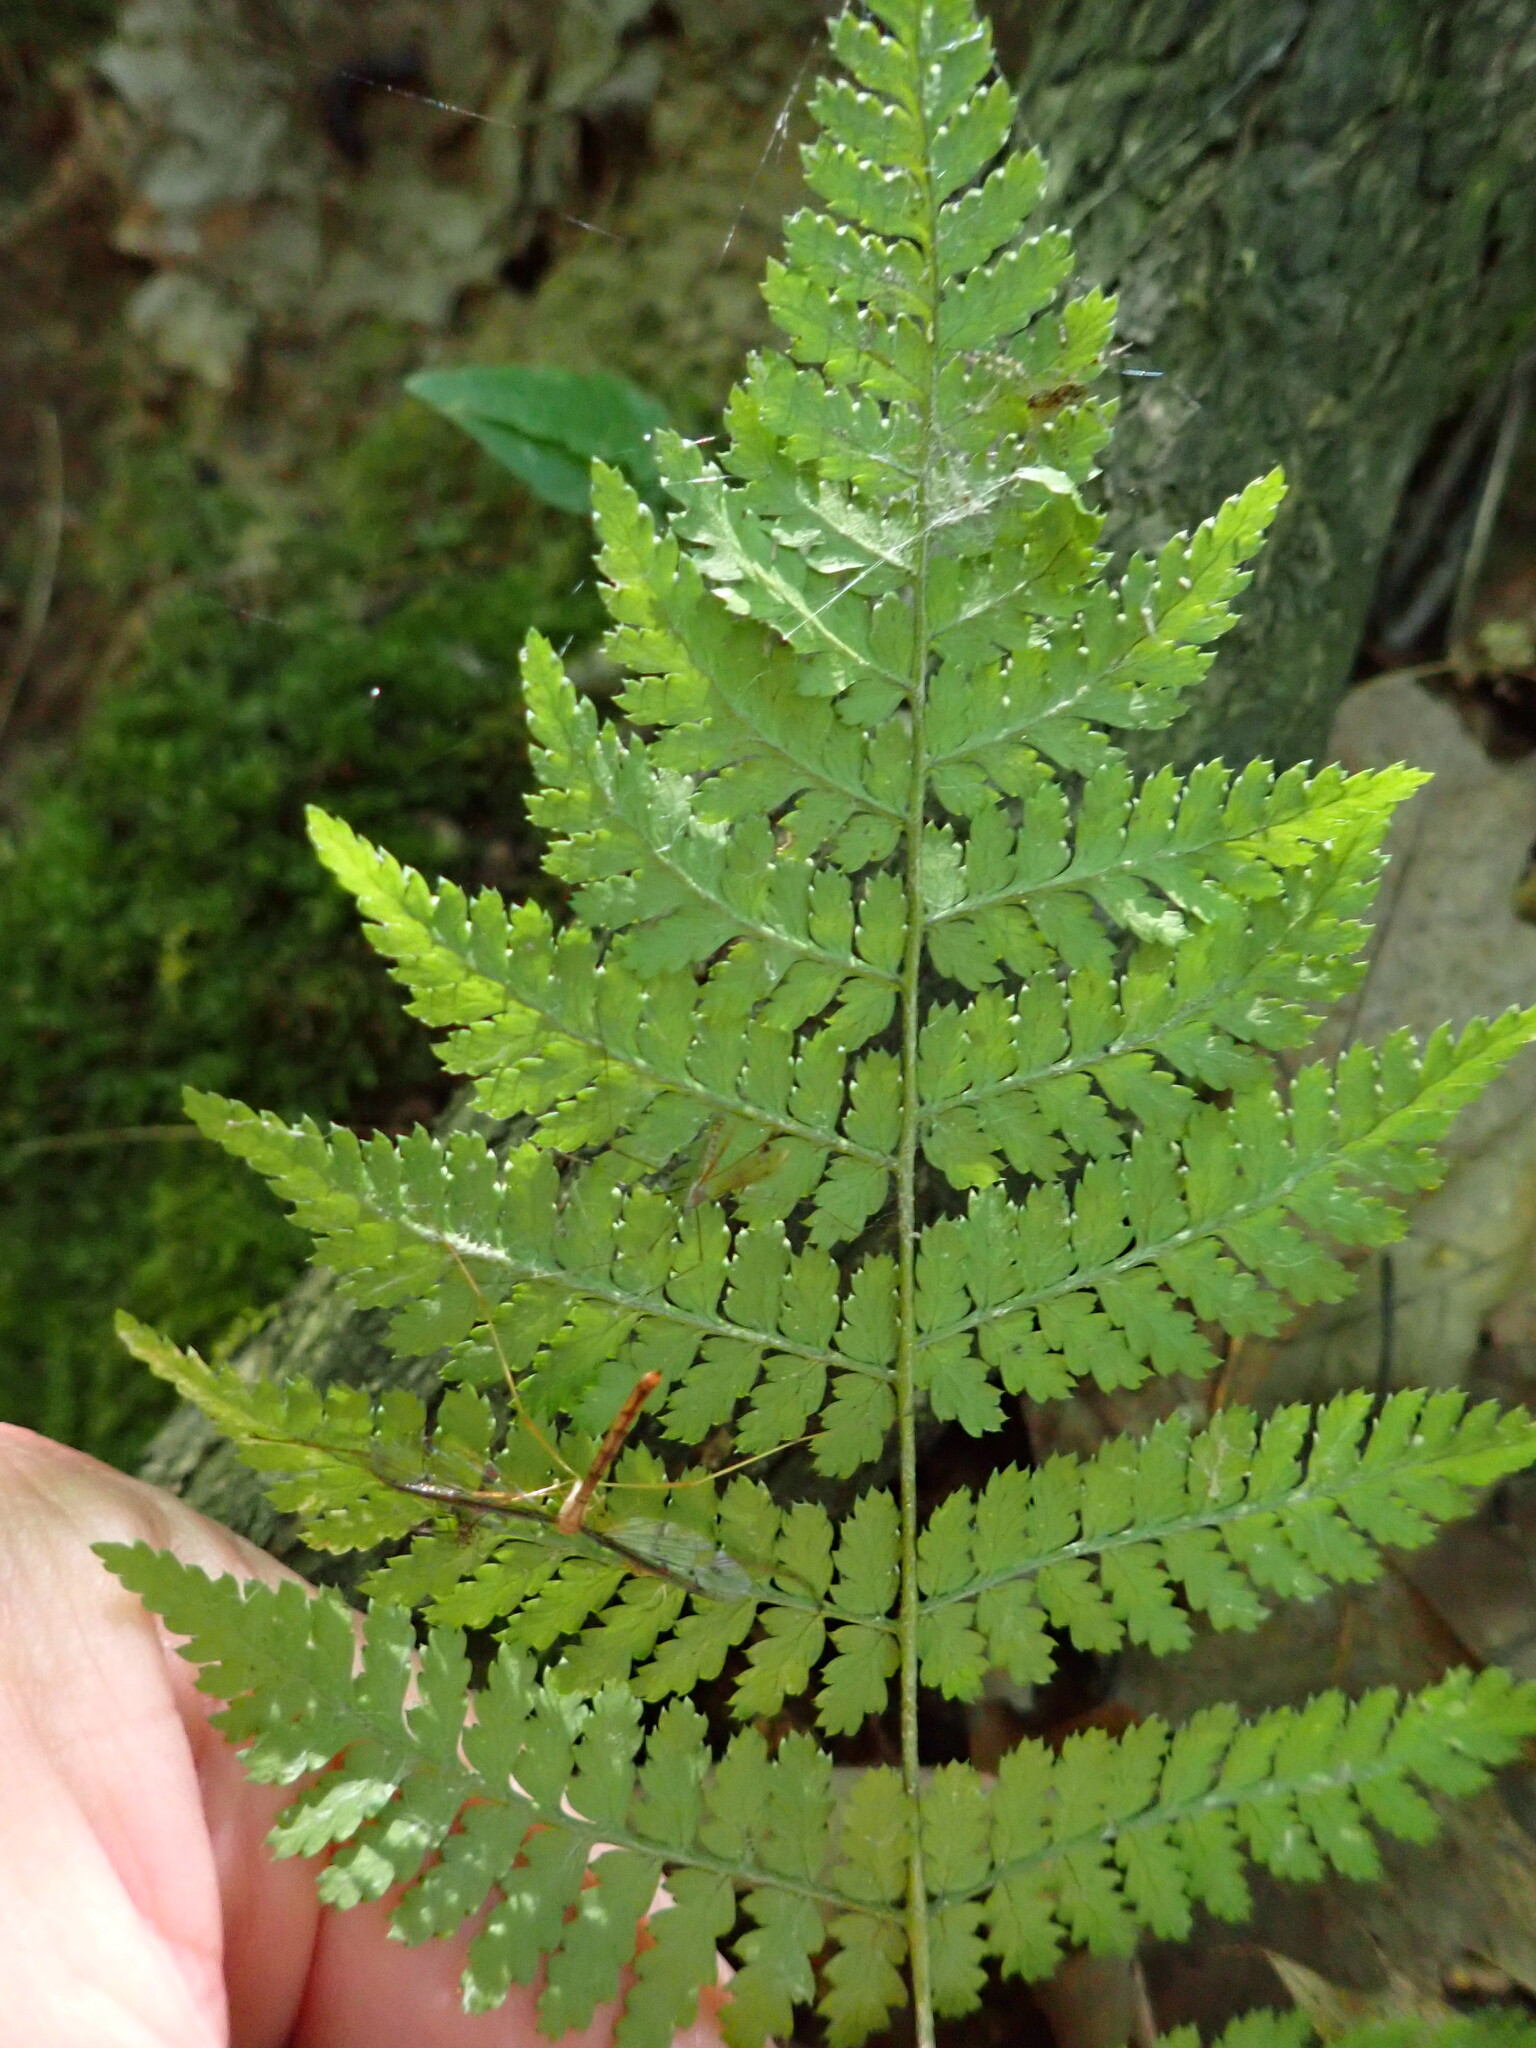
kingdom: Plantae
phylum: Tracheophyta
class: Polypodiopsida
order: Polypodiales
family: Dryopteridaceae
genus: Dryopteris
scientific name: Dryopteris intermedia
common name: Evergreen wood fern
